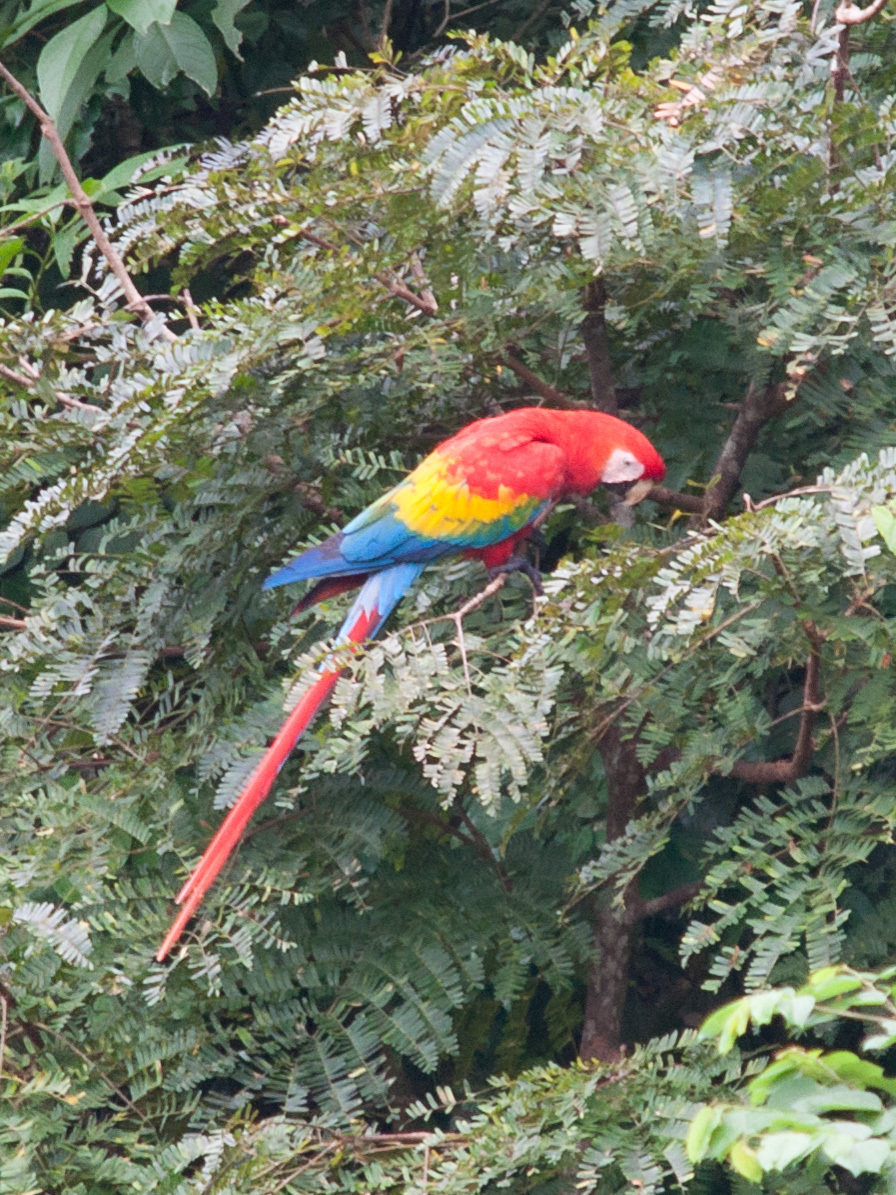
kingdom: Animalia
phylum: Chordata
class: Aves
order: Psittaciformes
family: Psittacidae
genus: Ara
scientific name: Ara macao
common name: Scarlet macaw
